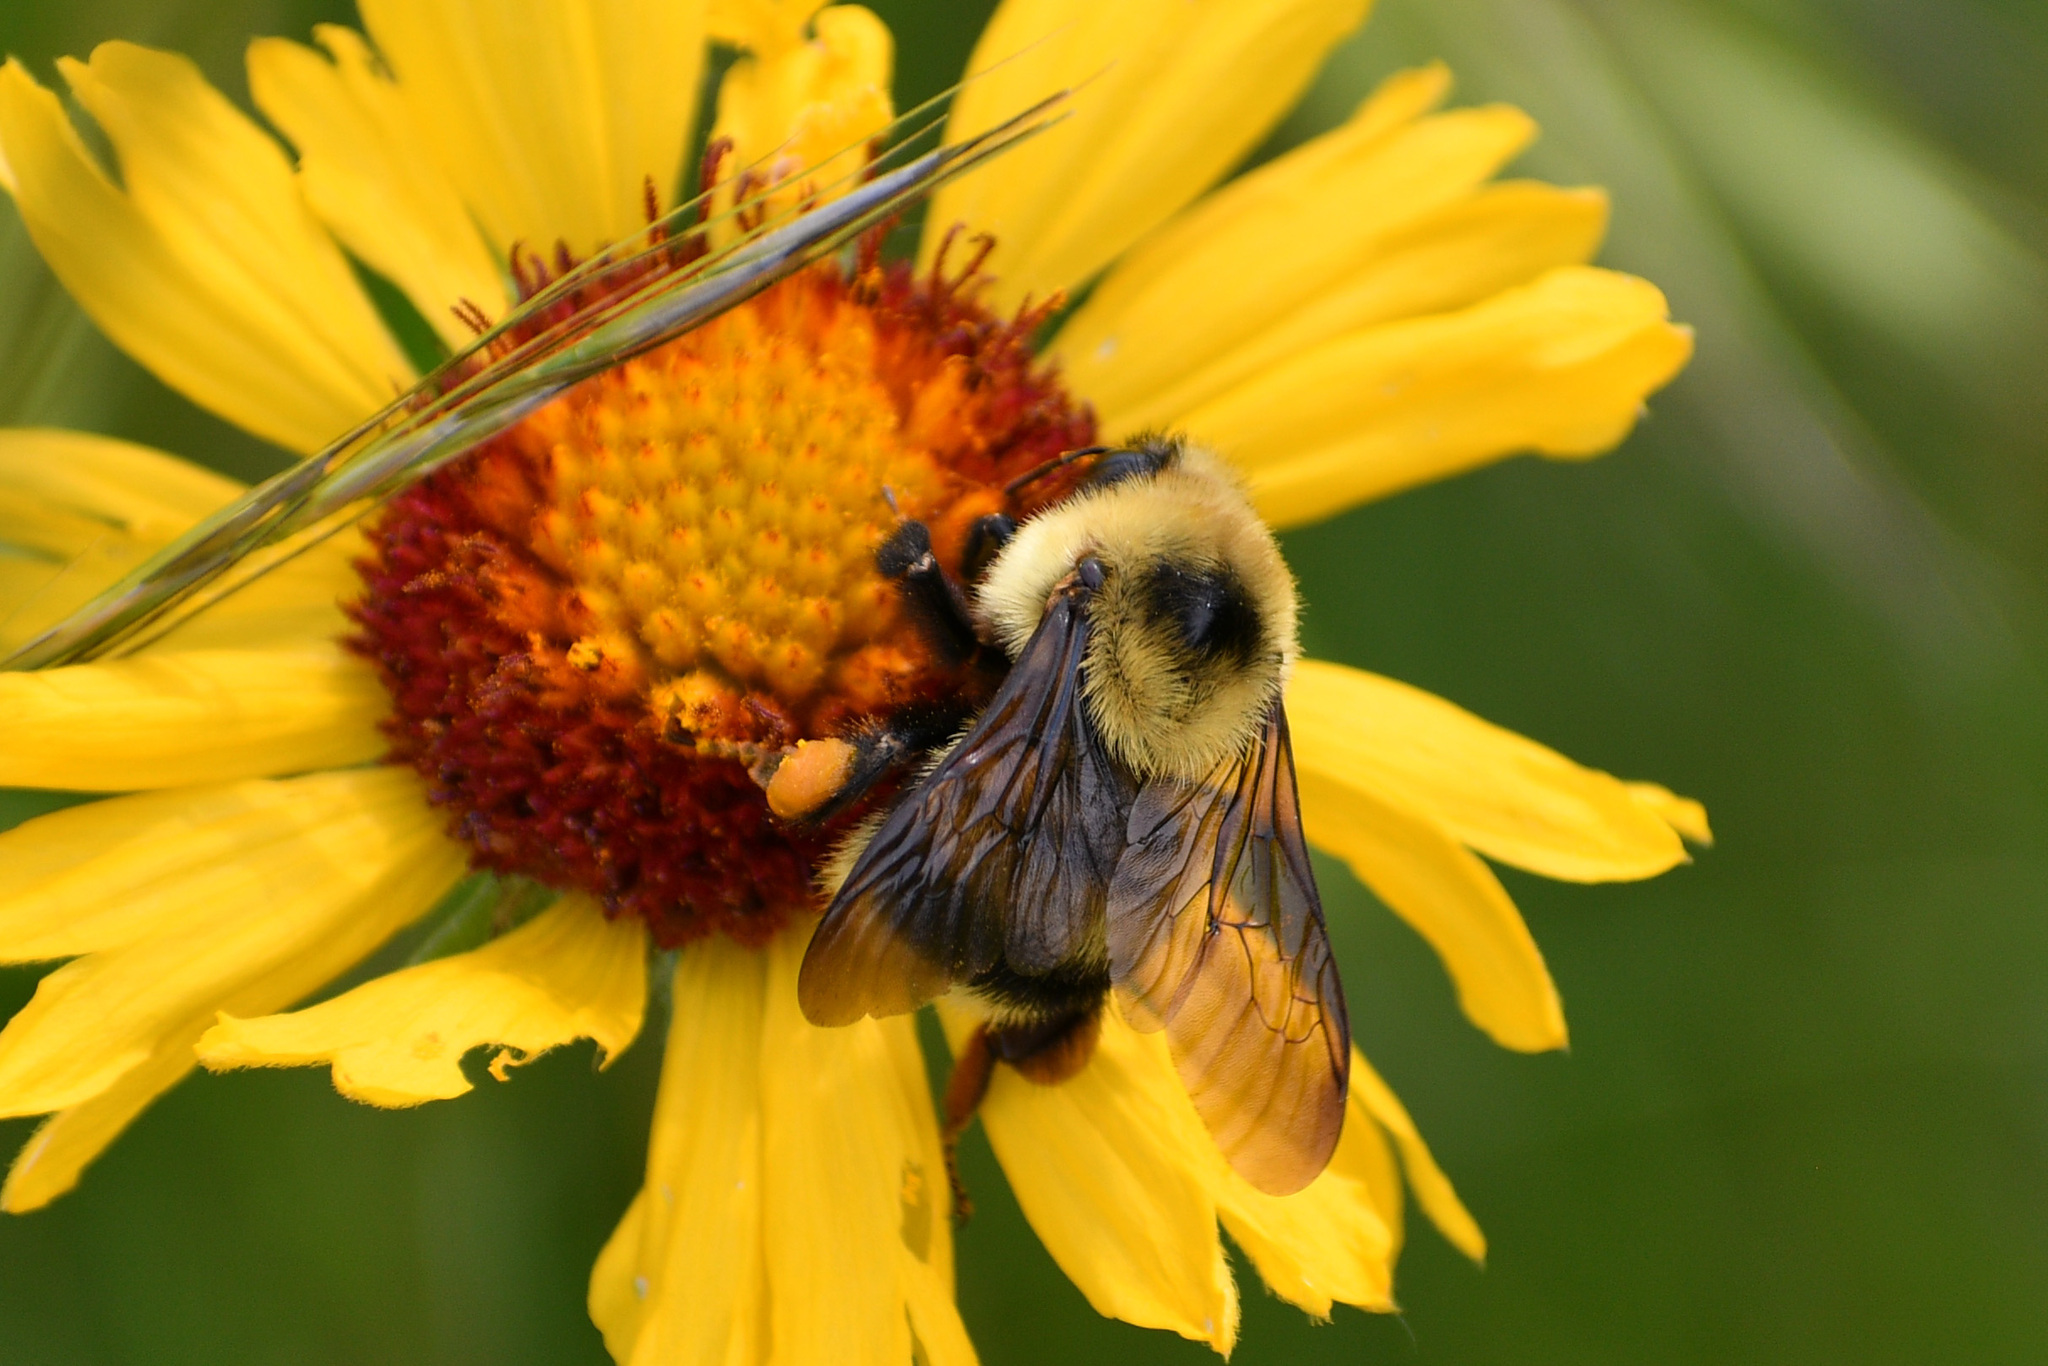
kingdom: Animalia
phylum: Arthropoda
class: Insecta
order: Hymenoptera
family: Apidae
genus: Bombus
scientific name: Bombus rufocinctus
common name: Red-belted bumble bee
